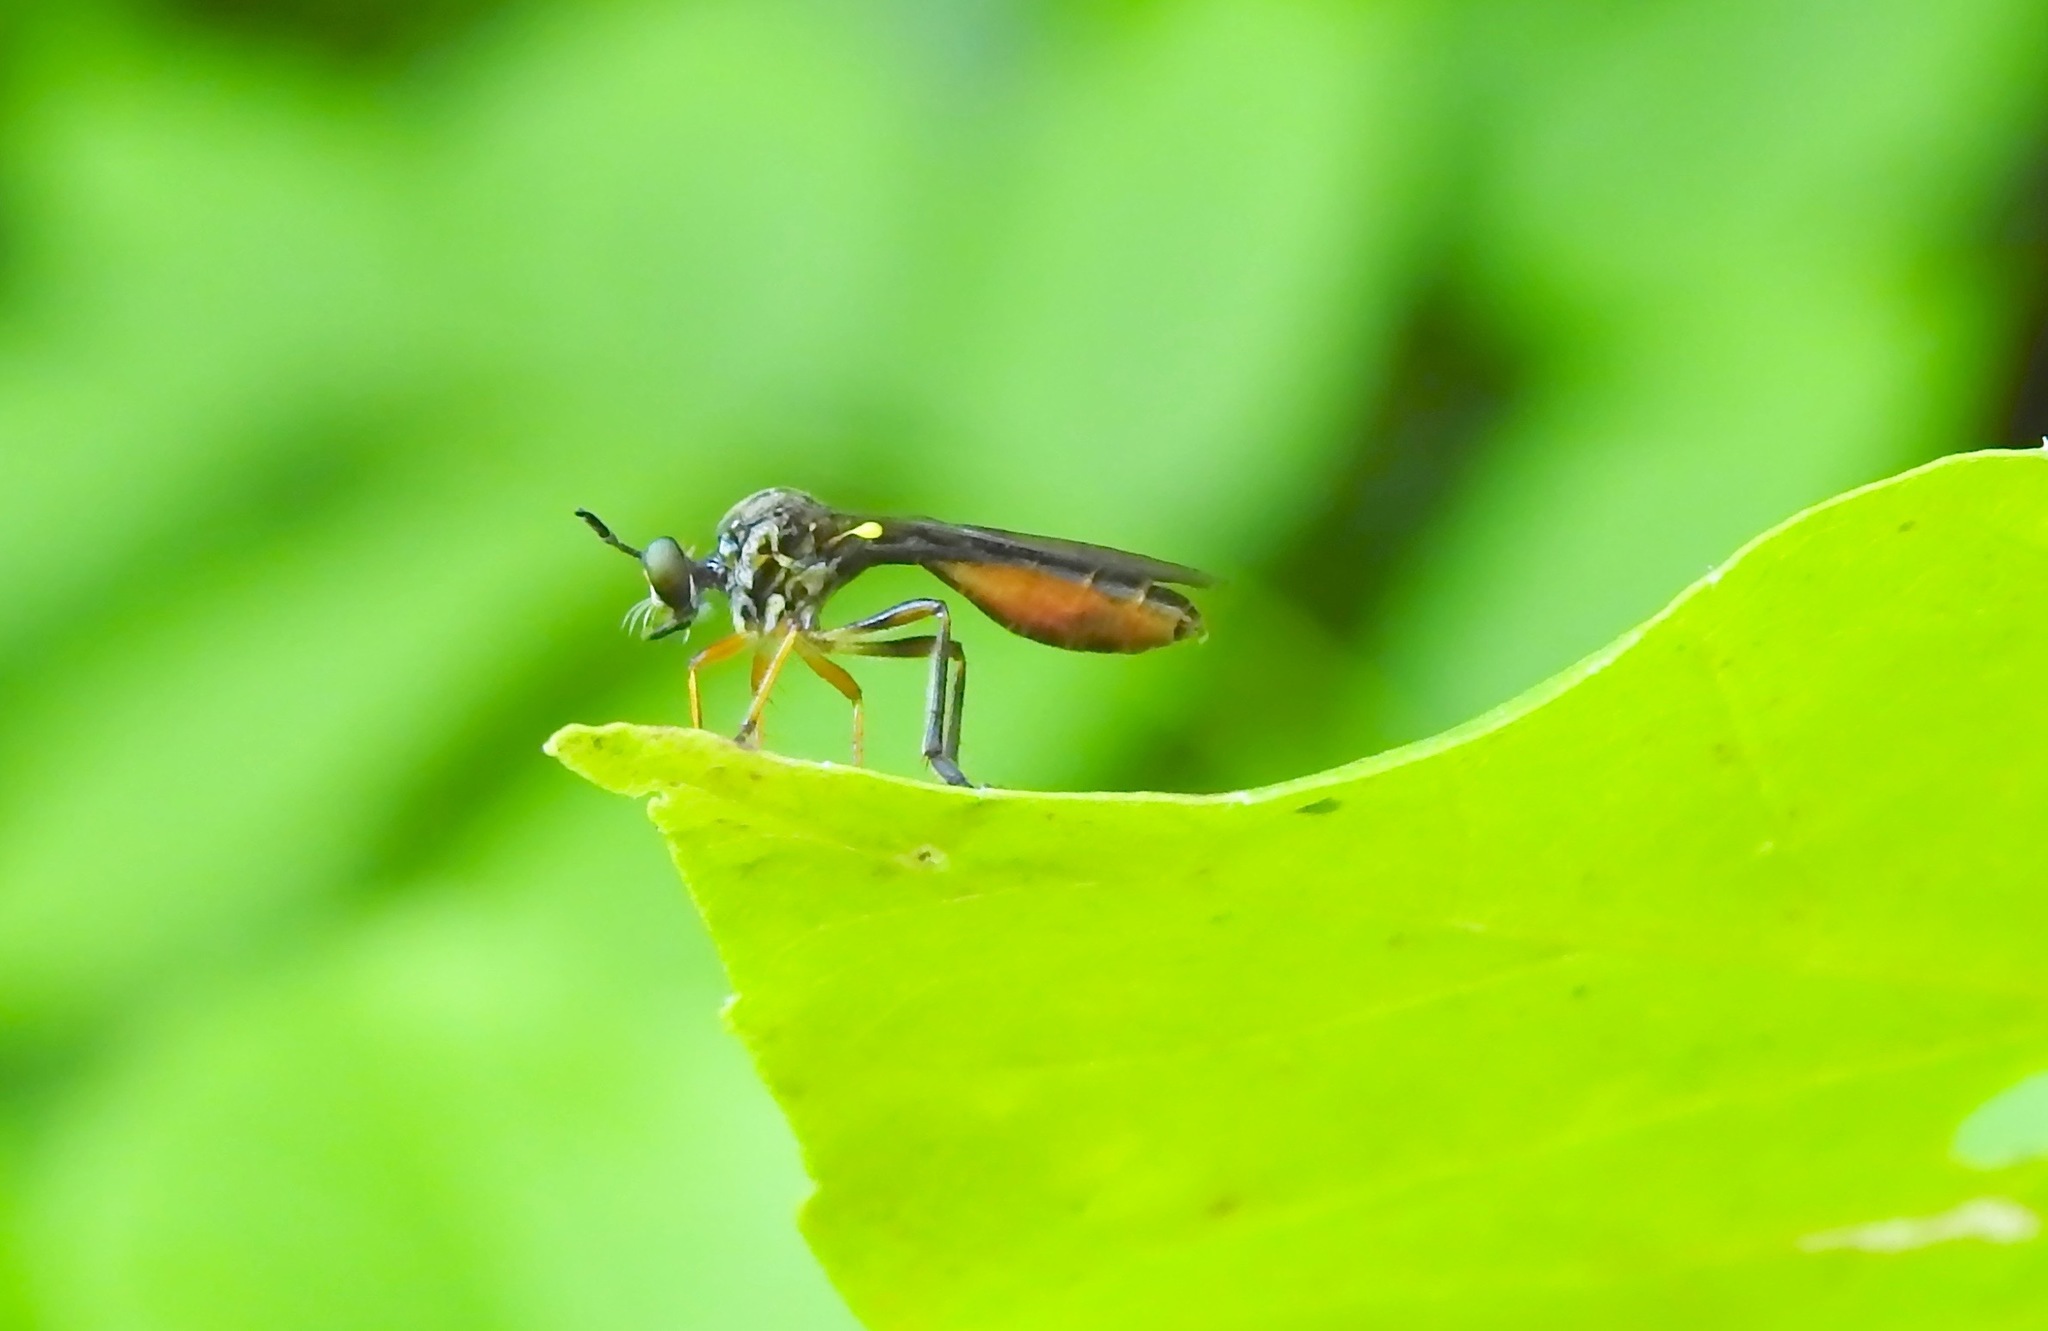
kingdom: Animalia
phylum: Arthropoda
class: Insecta
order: Diptera
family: Asilidae
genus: Dioctria
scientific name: Dioctria hyalipennis
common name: Stripe-legged robberfly
